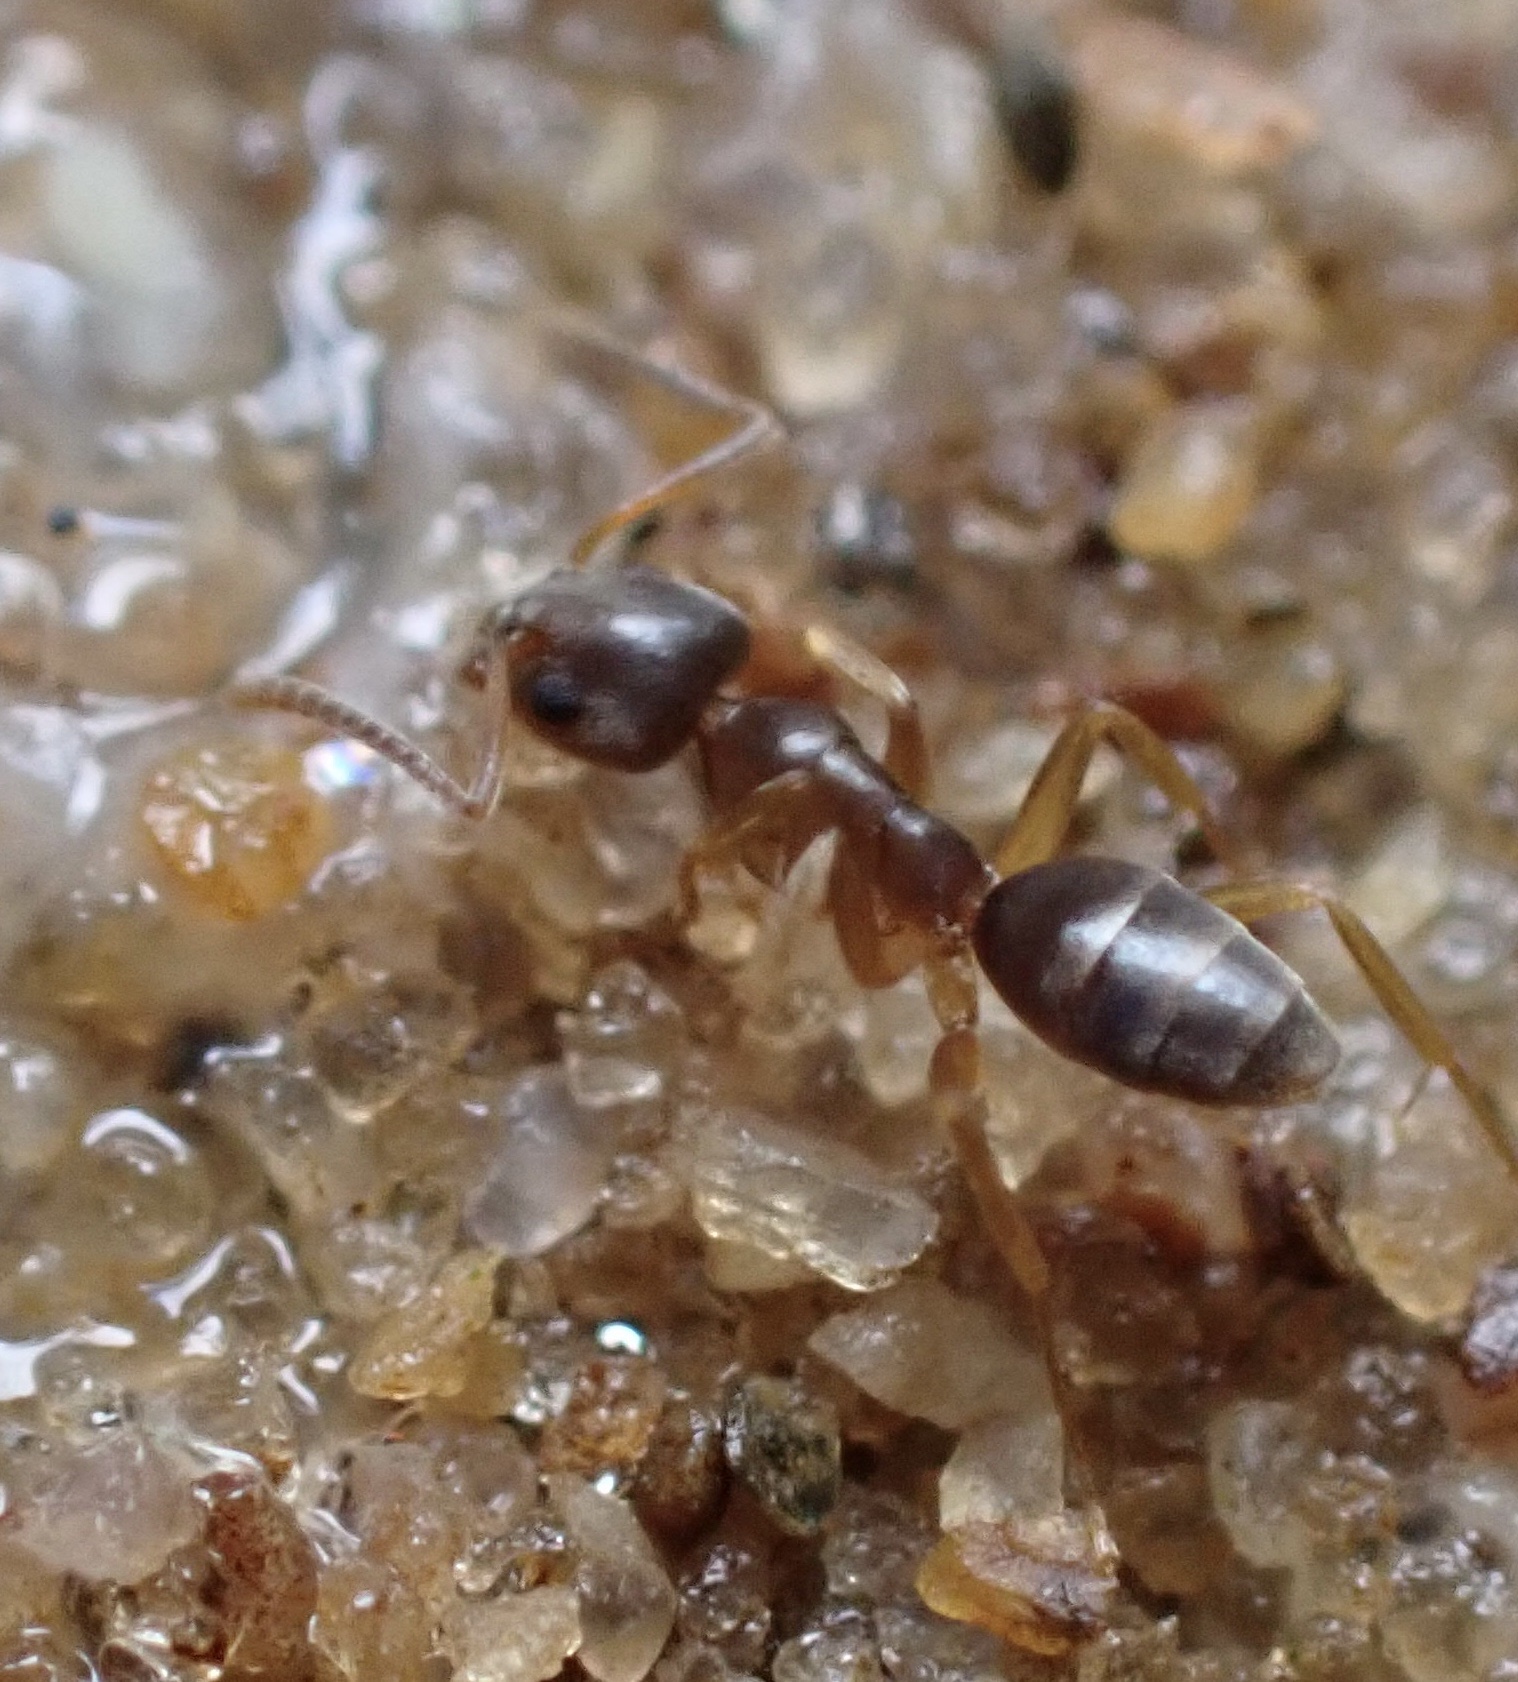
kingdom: Animalia
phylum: Arthropoda
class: Insecta
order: Hymenoptera
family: Formicidae
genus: Tapinoma
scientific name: Tapinoma sessile
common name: Odorous house ant
